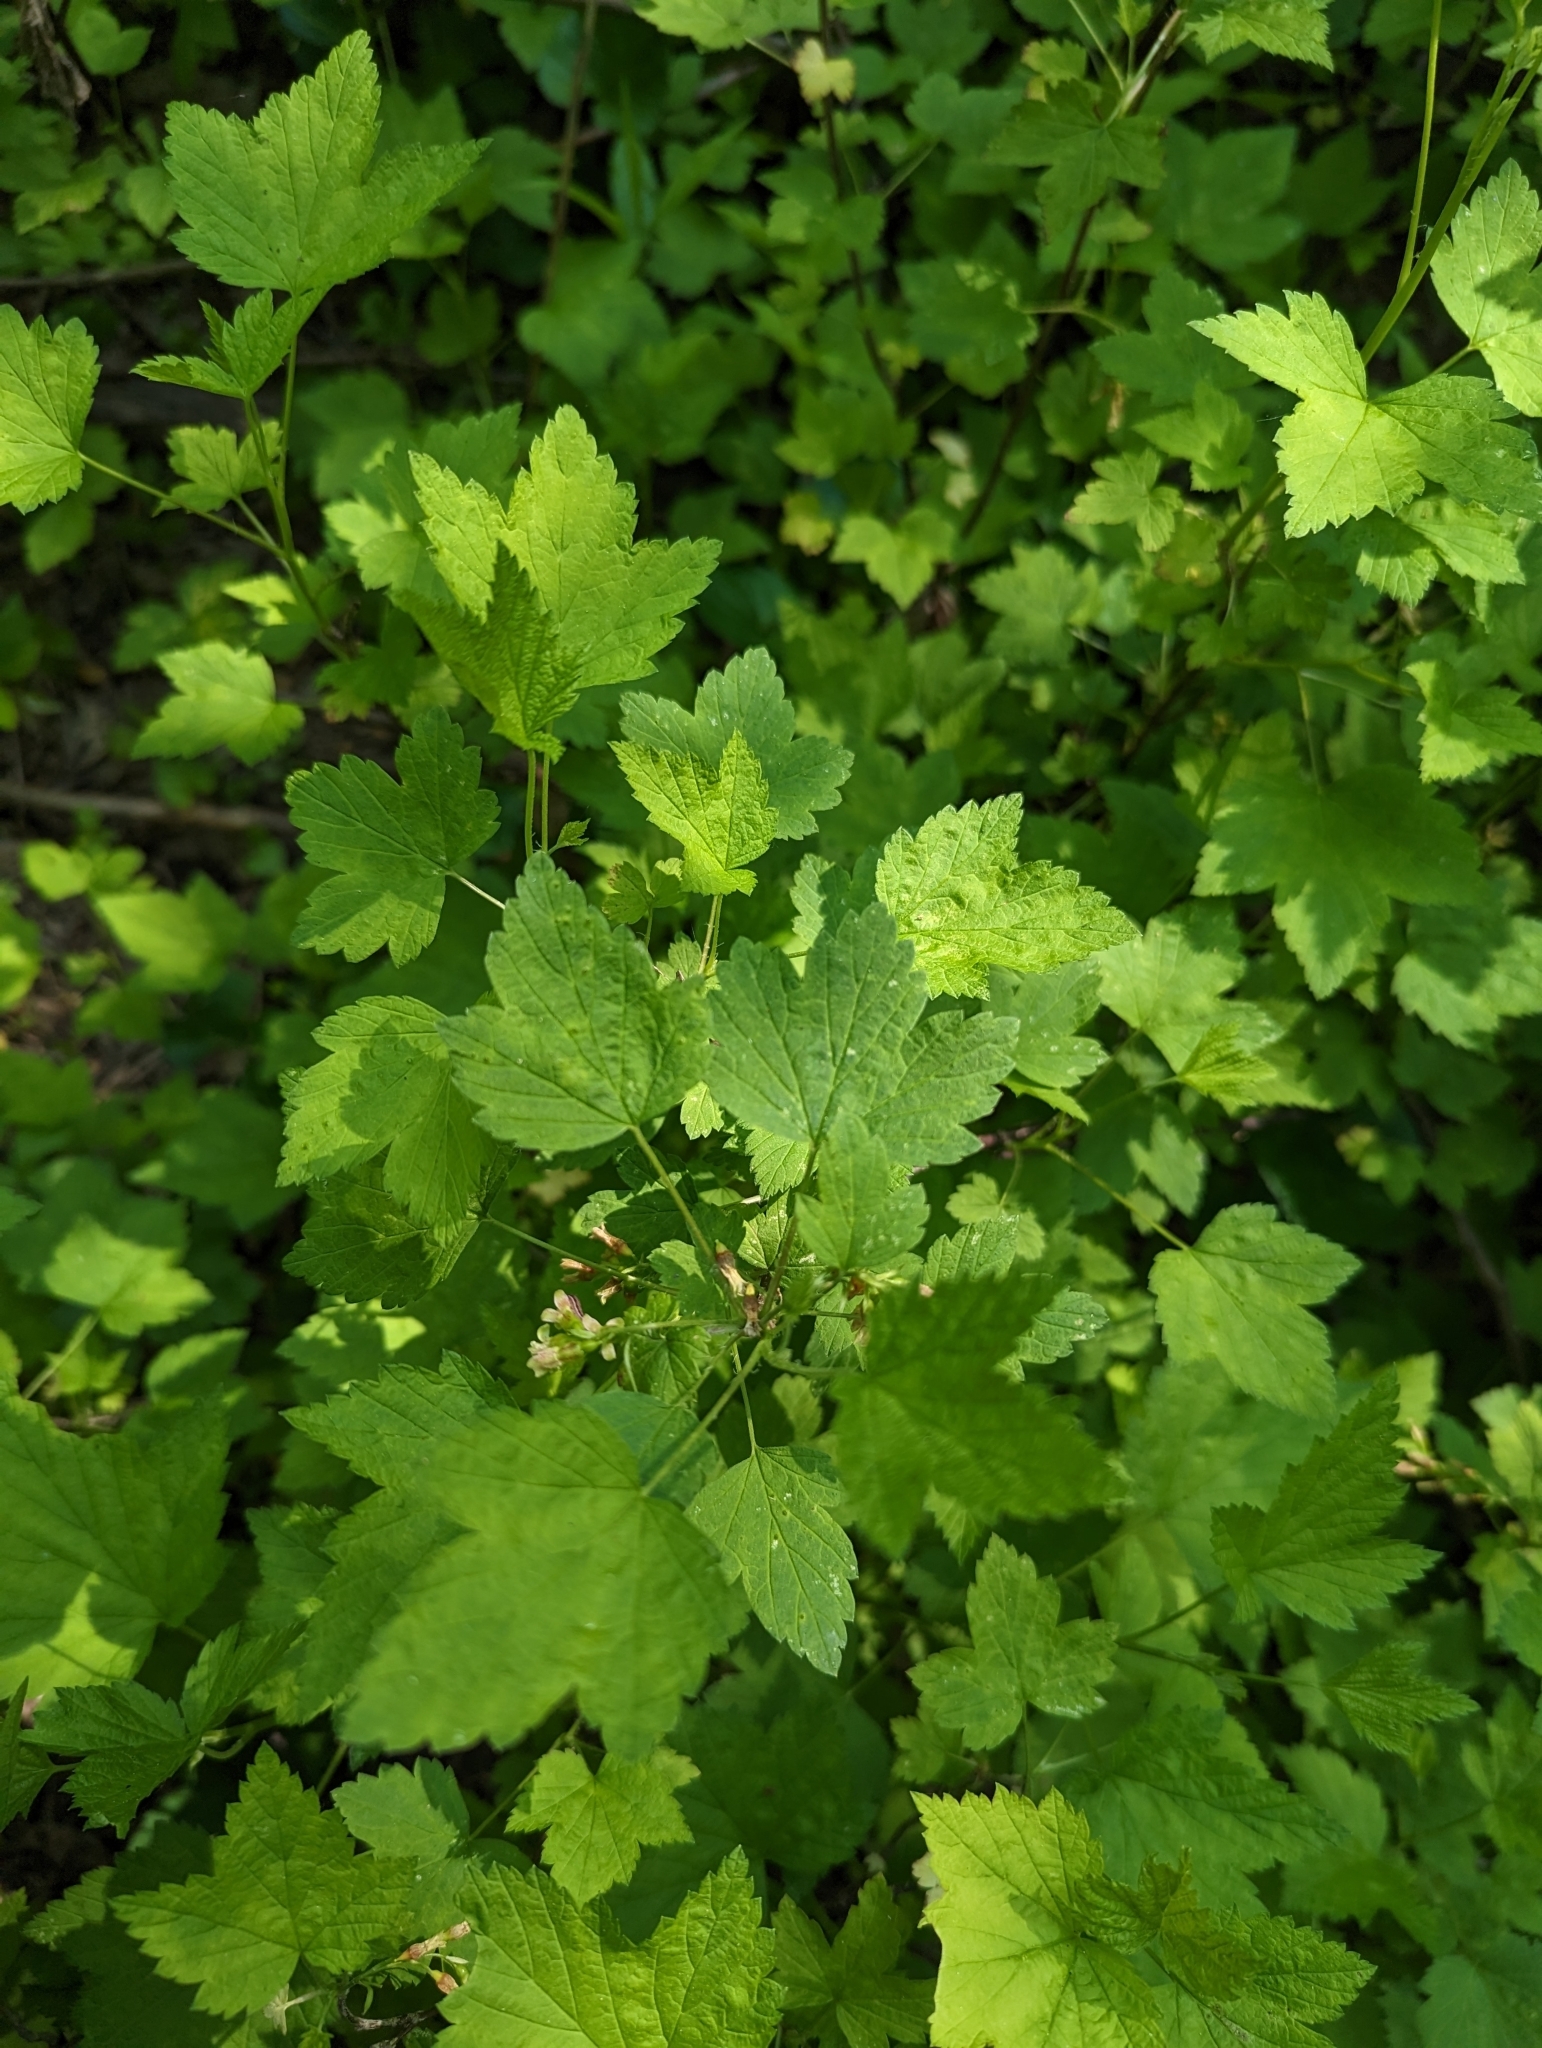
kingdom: Plantae
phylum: Tracheophyta
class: Magnoliopsida
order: Saxifragales
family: Grossulariaceae
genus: Ribes
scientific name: Ribes americanum
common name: American black currant
